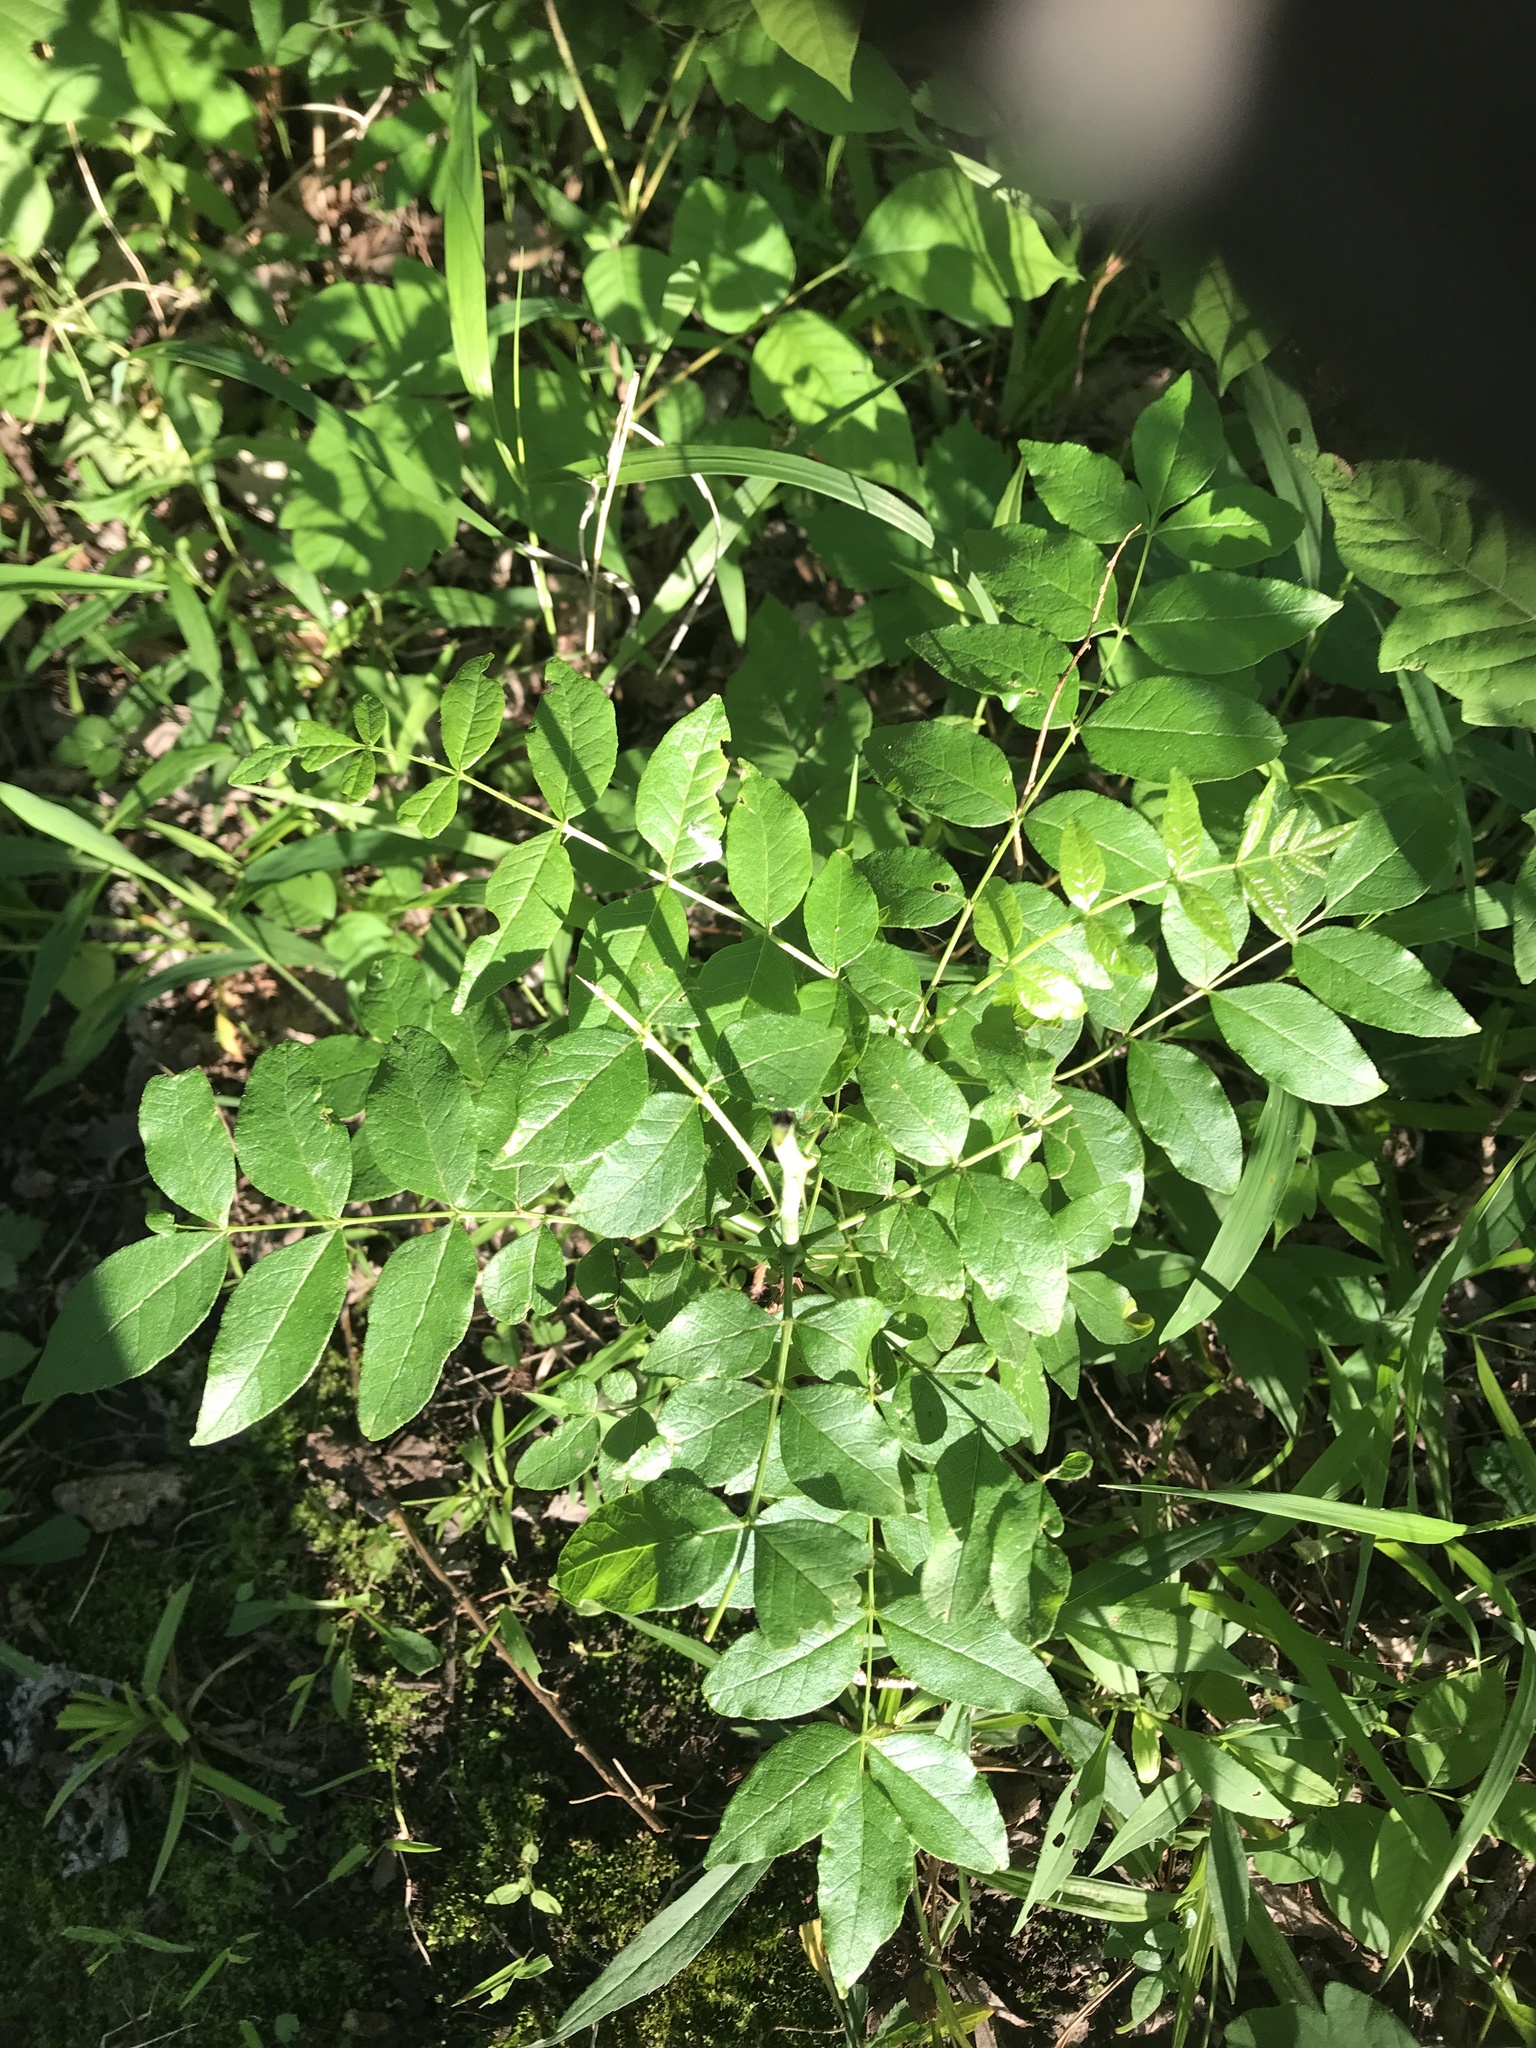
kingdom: Plantae
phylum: Tracheophyta
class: Magnoliopsida
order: Sapindales
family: Rutaceae
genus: Zanthoxylum
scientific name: Zanthoxylum americanum
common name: Northern prickly-ash
